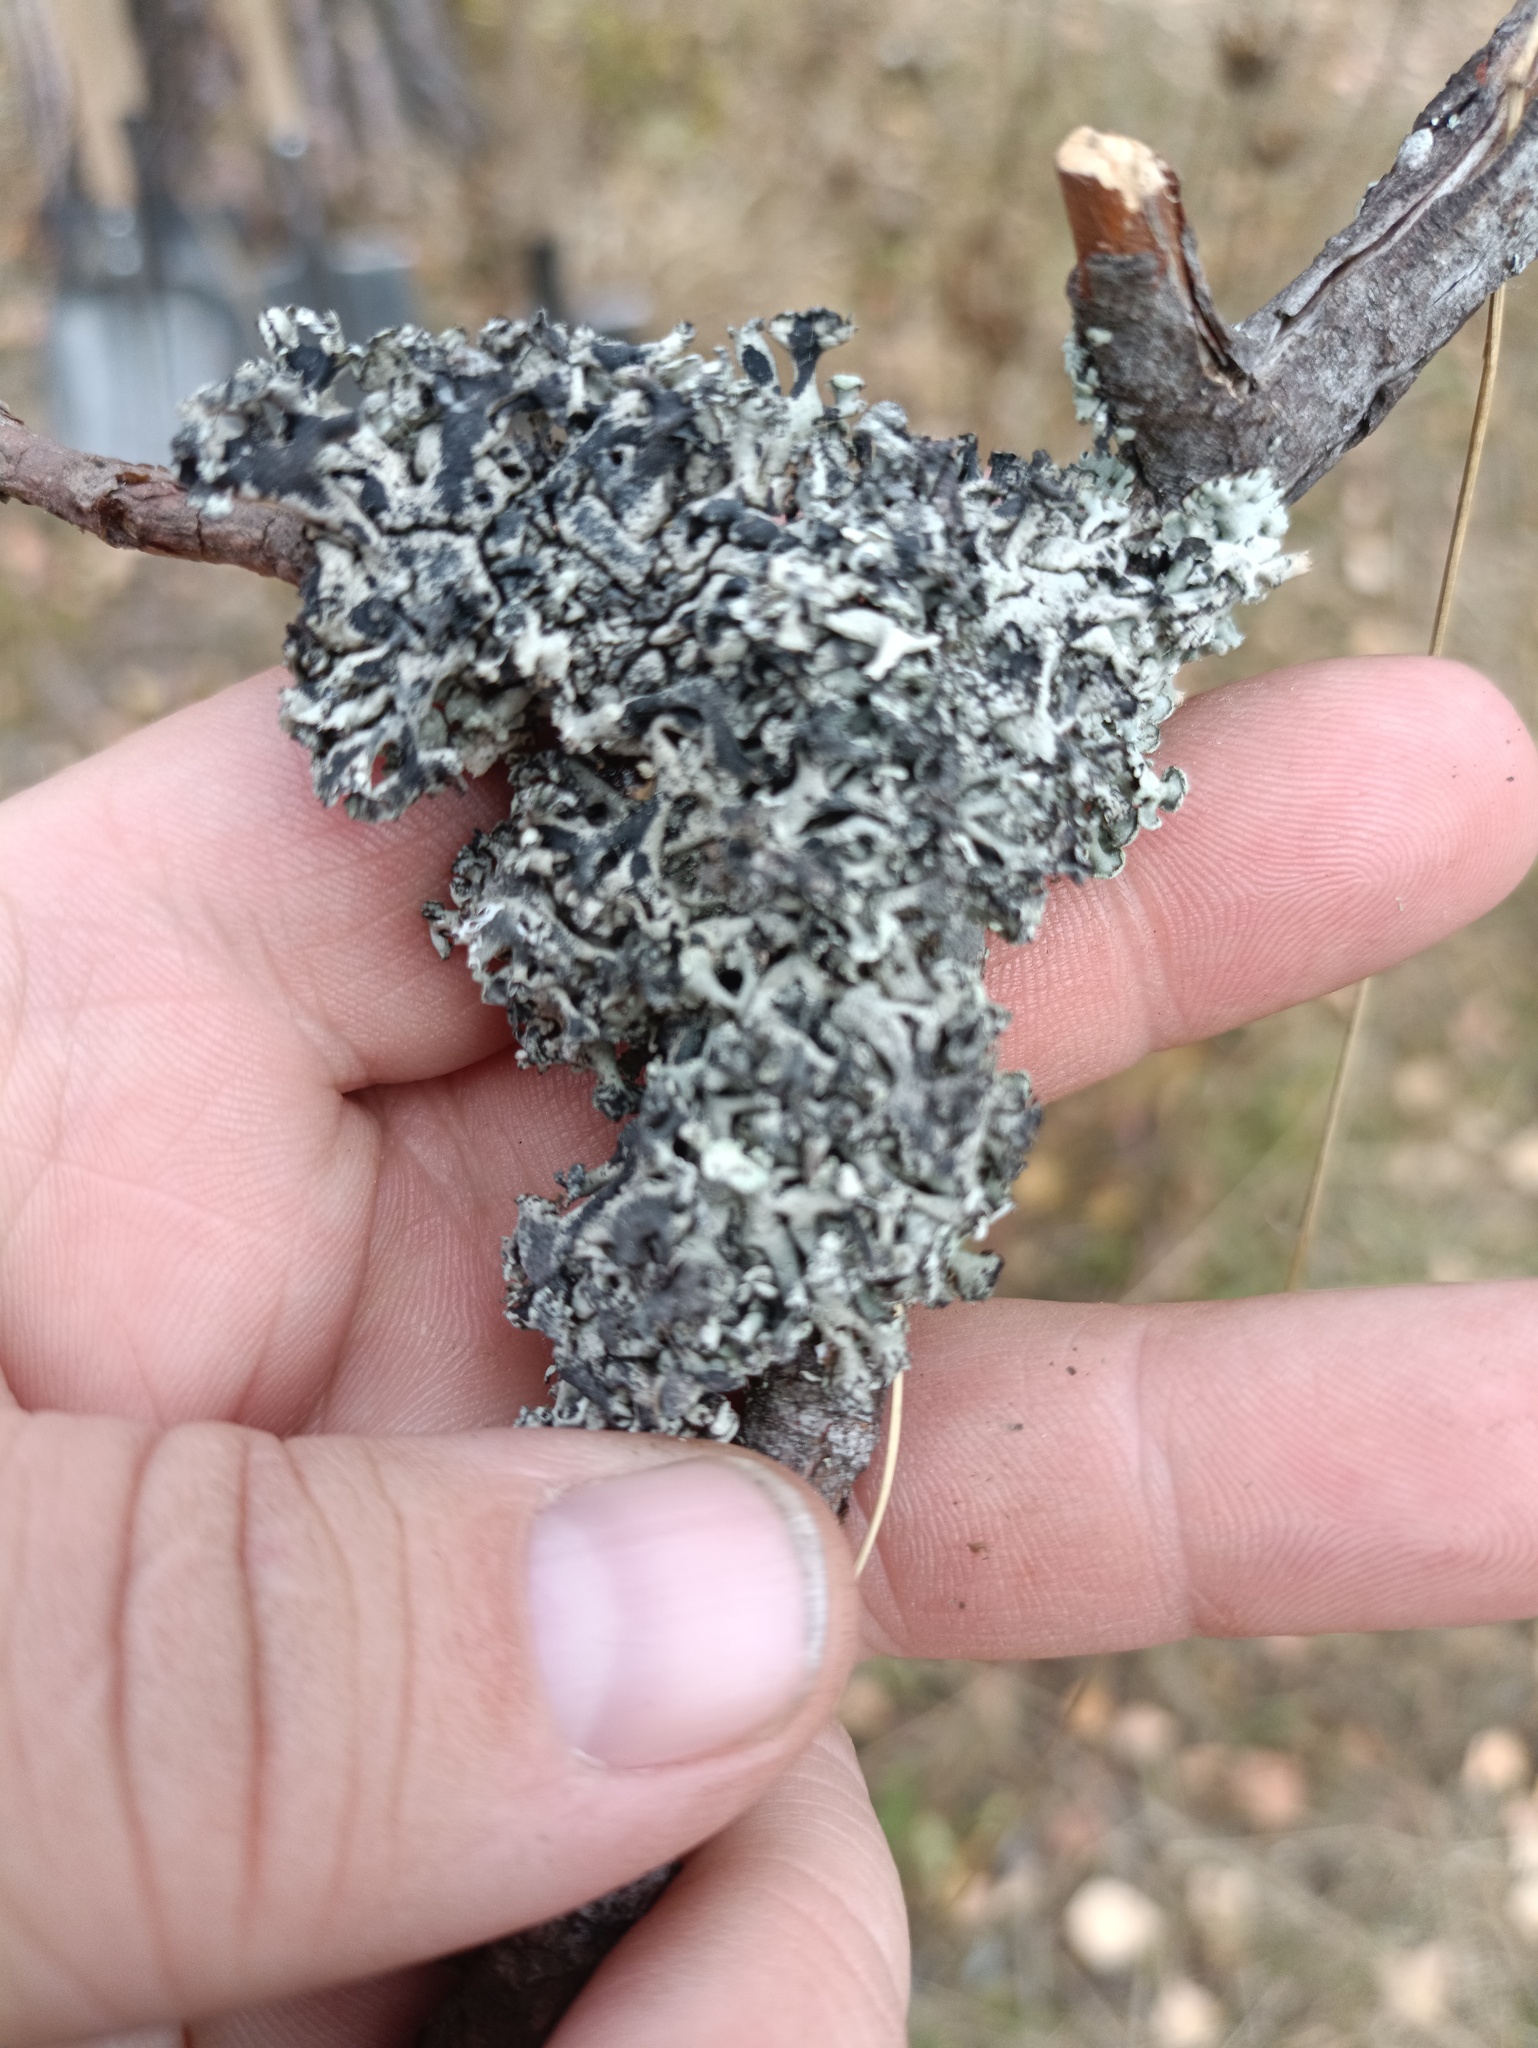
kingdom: Fungi
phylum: Ascomycota
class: Lecanoromycetes
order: Lecanorales
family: Parmeliaceae
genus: Hypogymnia
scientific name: Hypogymnia physodes
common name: Dark crottle
